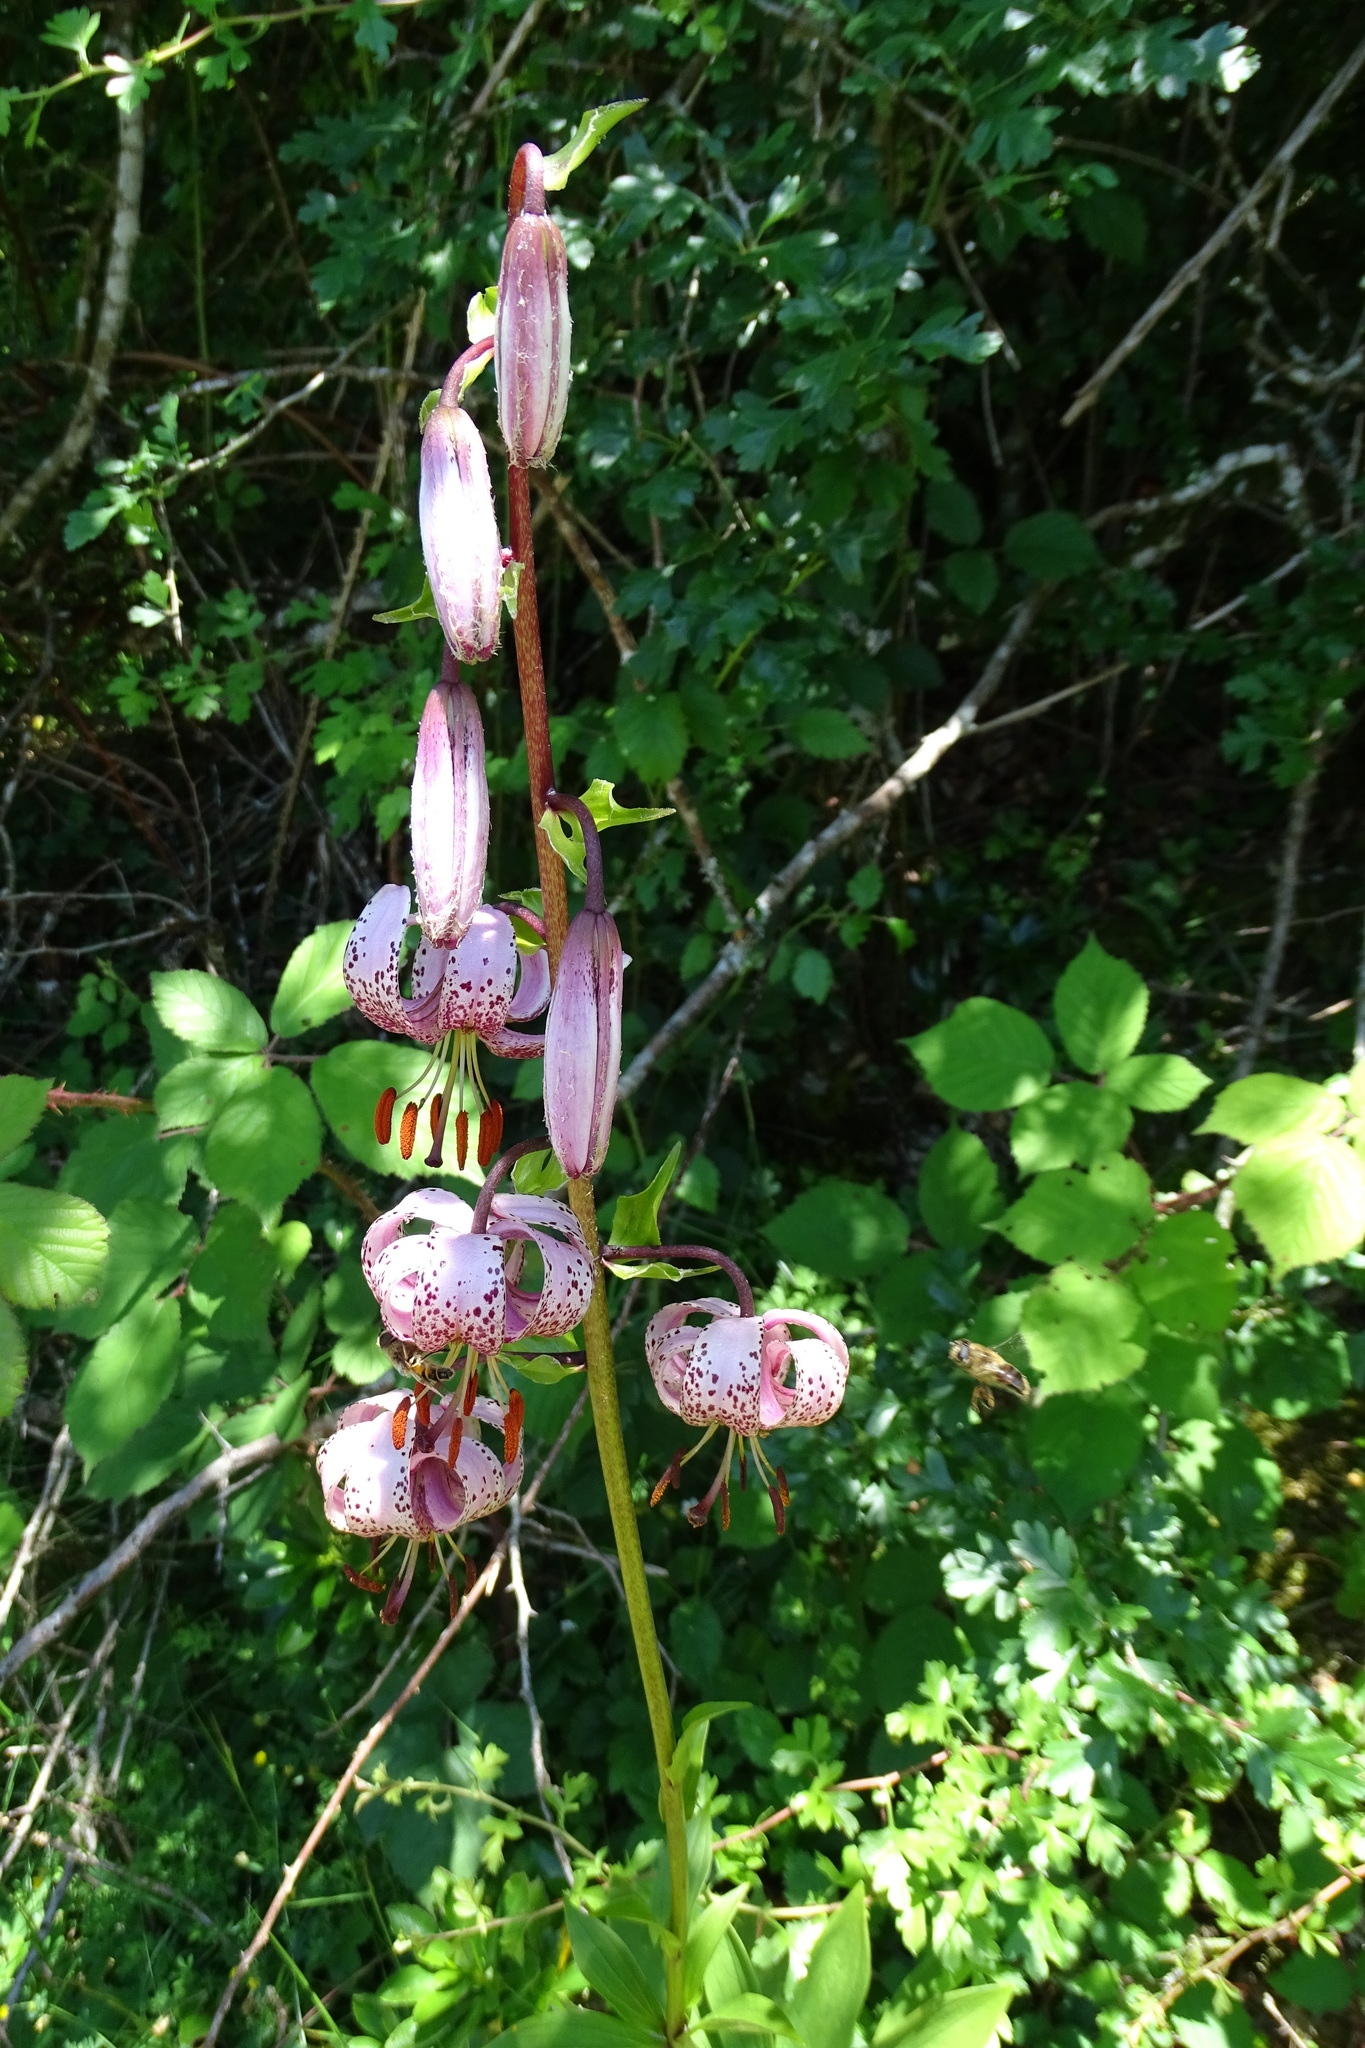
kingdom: Plantae
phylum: Tracheophyta
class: Liliopsida
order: Liliales
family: Liliaceae
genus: Lilium
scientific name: Lilium martagon
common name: Martagon lily
